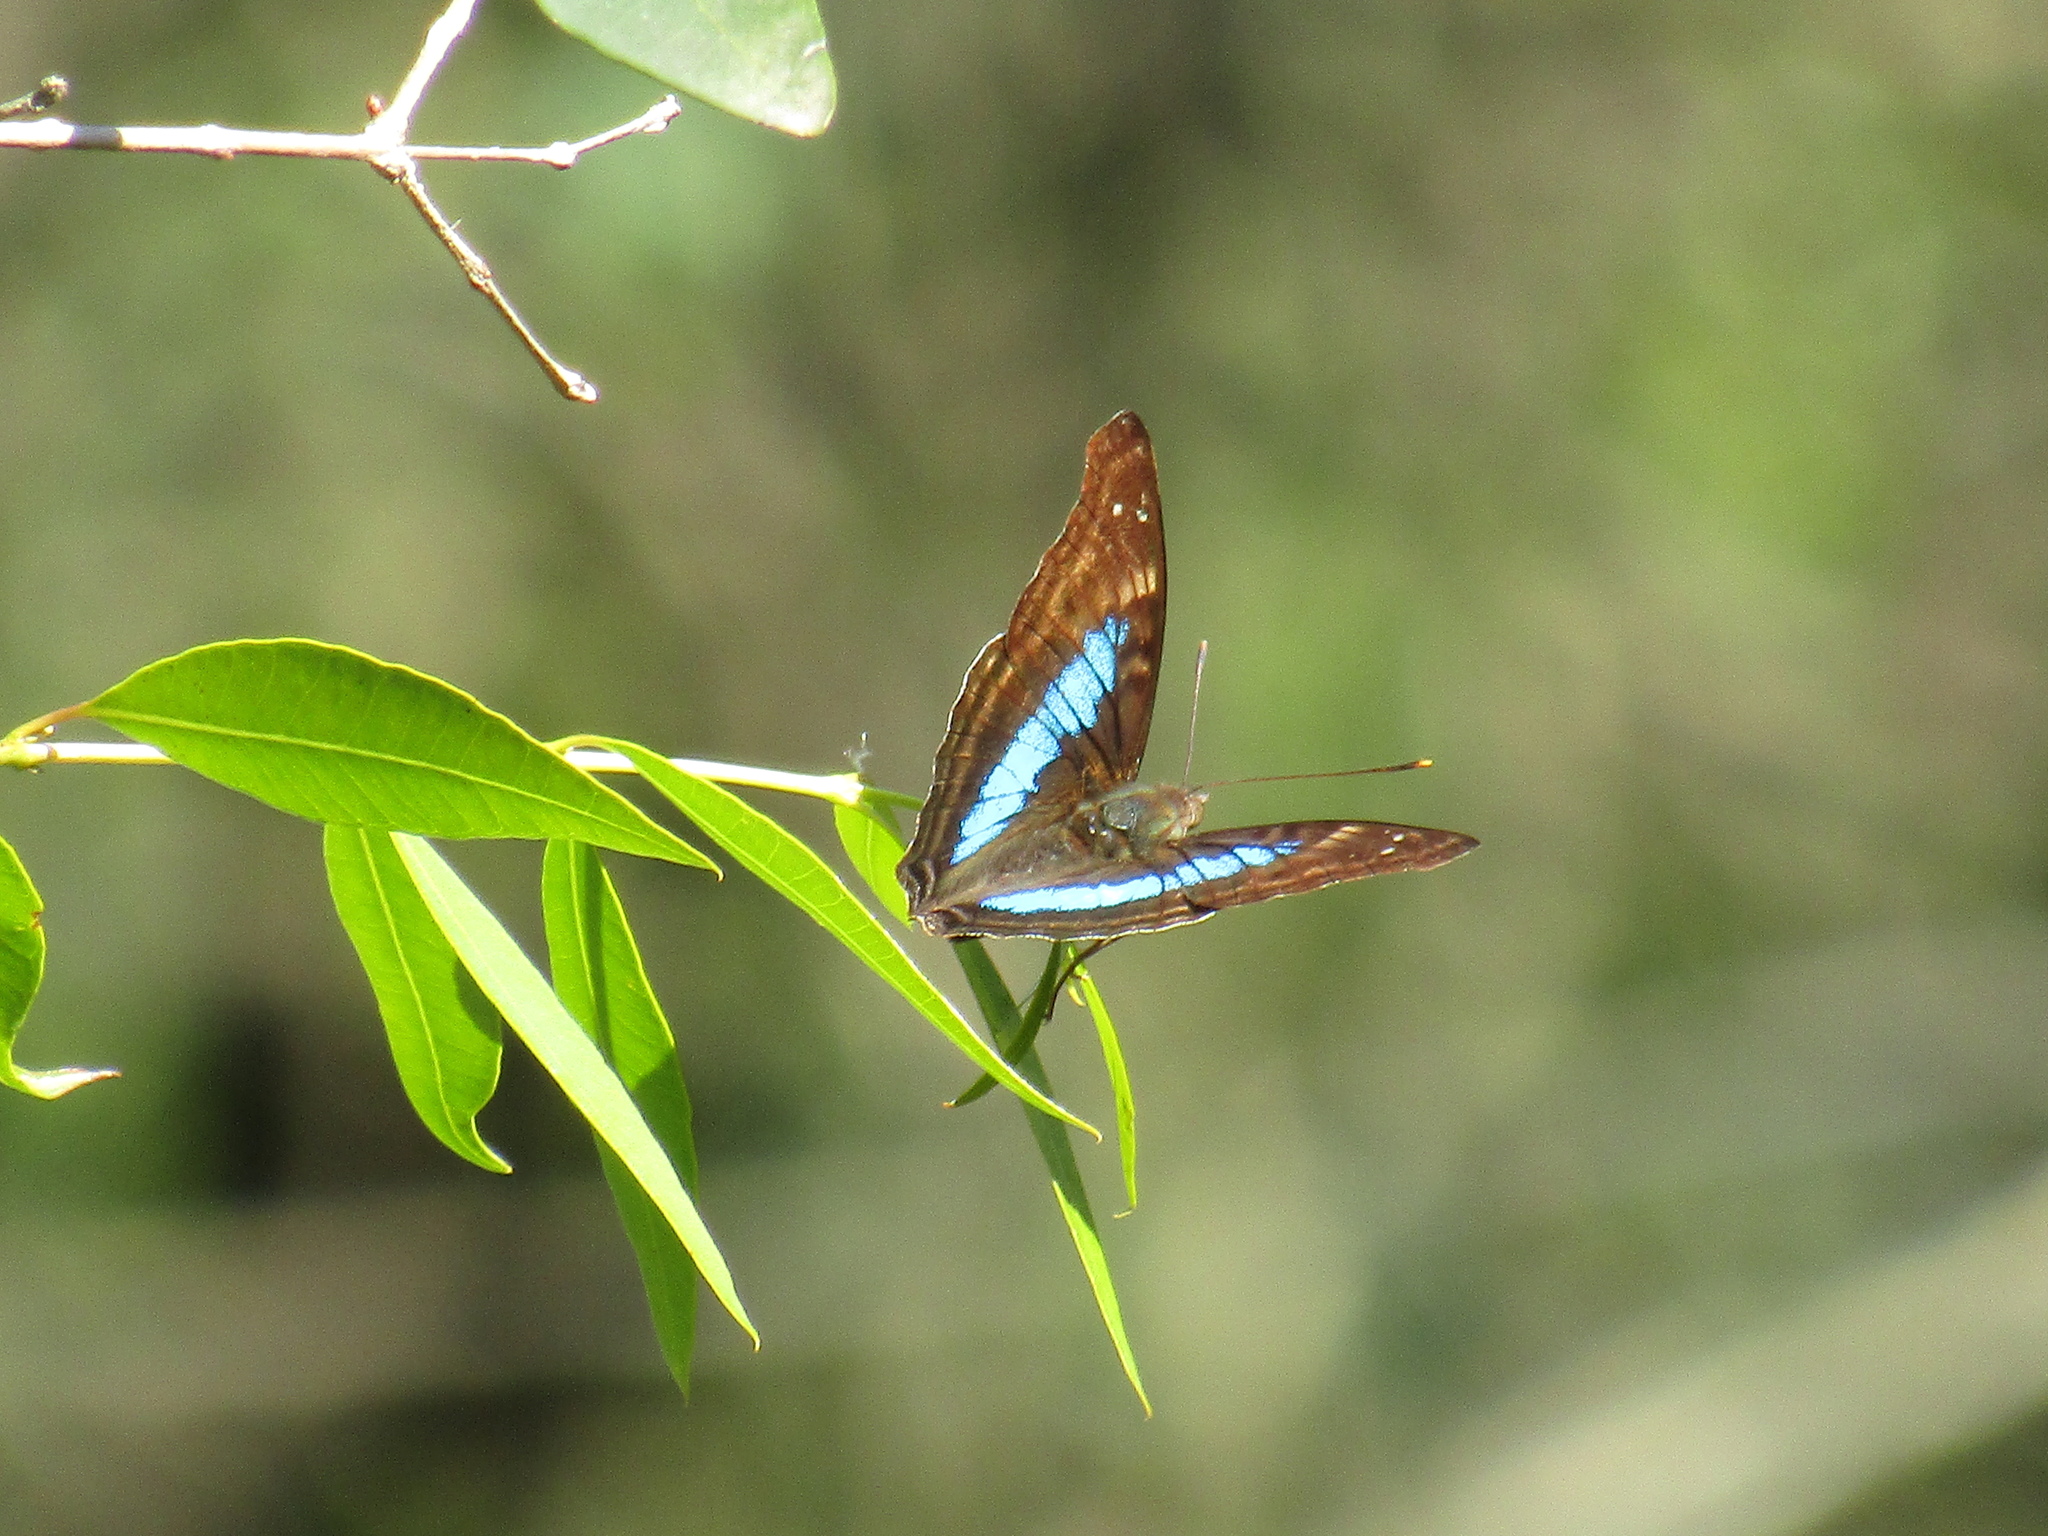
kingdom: Animalia
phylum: Arthropoda
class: Insecta
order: Lepidoptera
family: Nymphalidae
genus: Doxocopa
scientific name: Doxocopa laurentia
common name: Turquoise emperor
